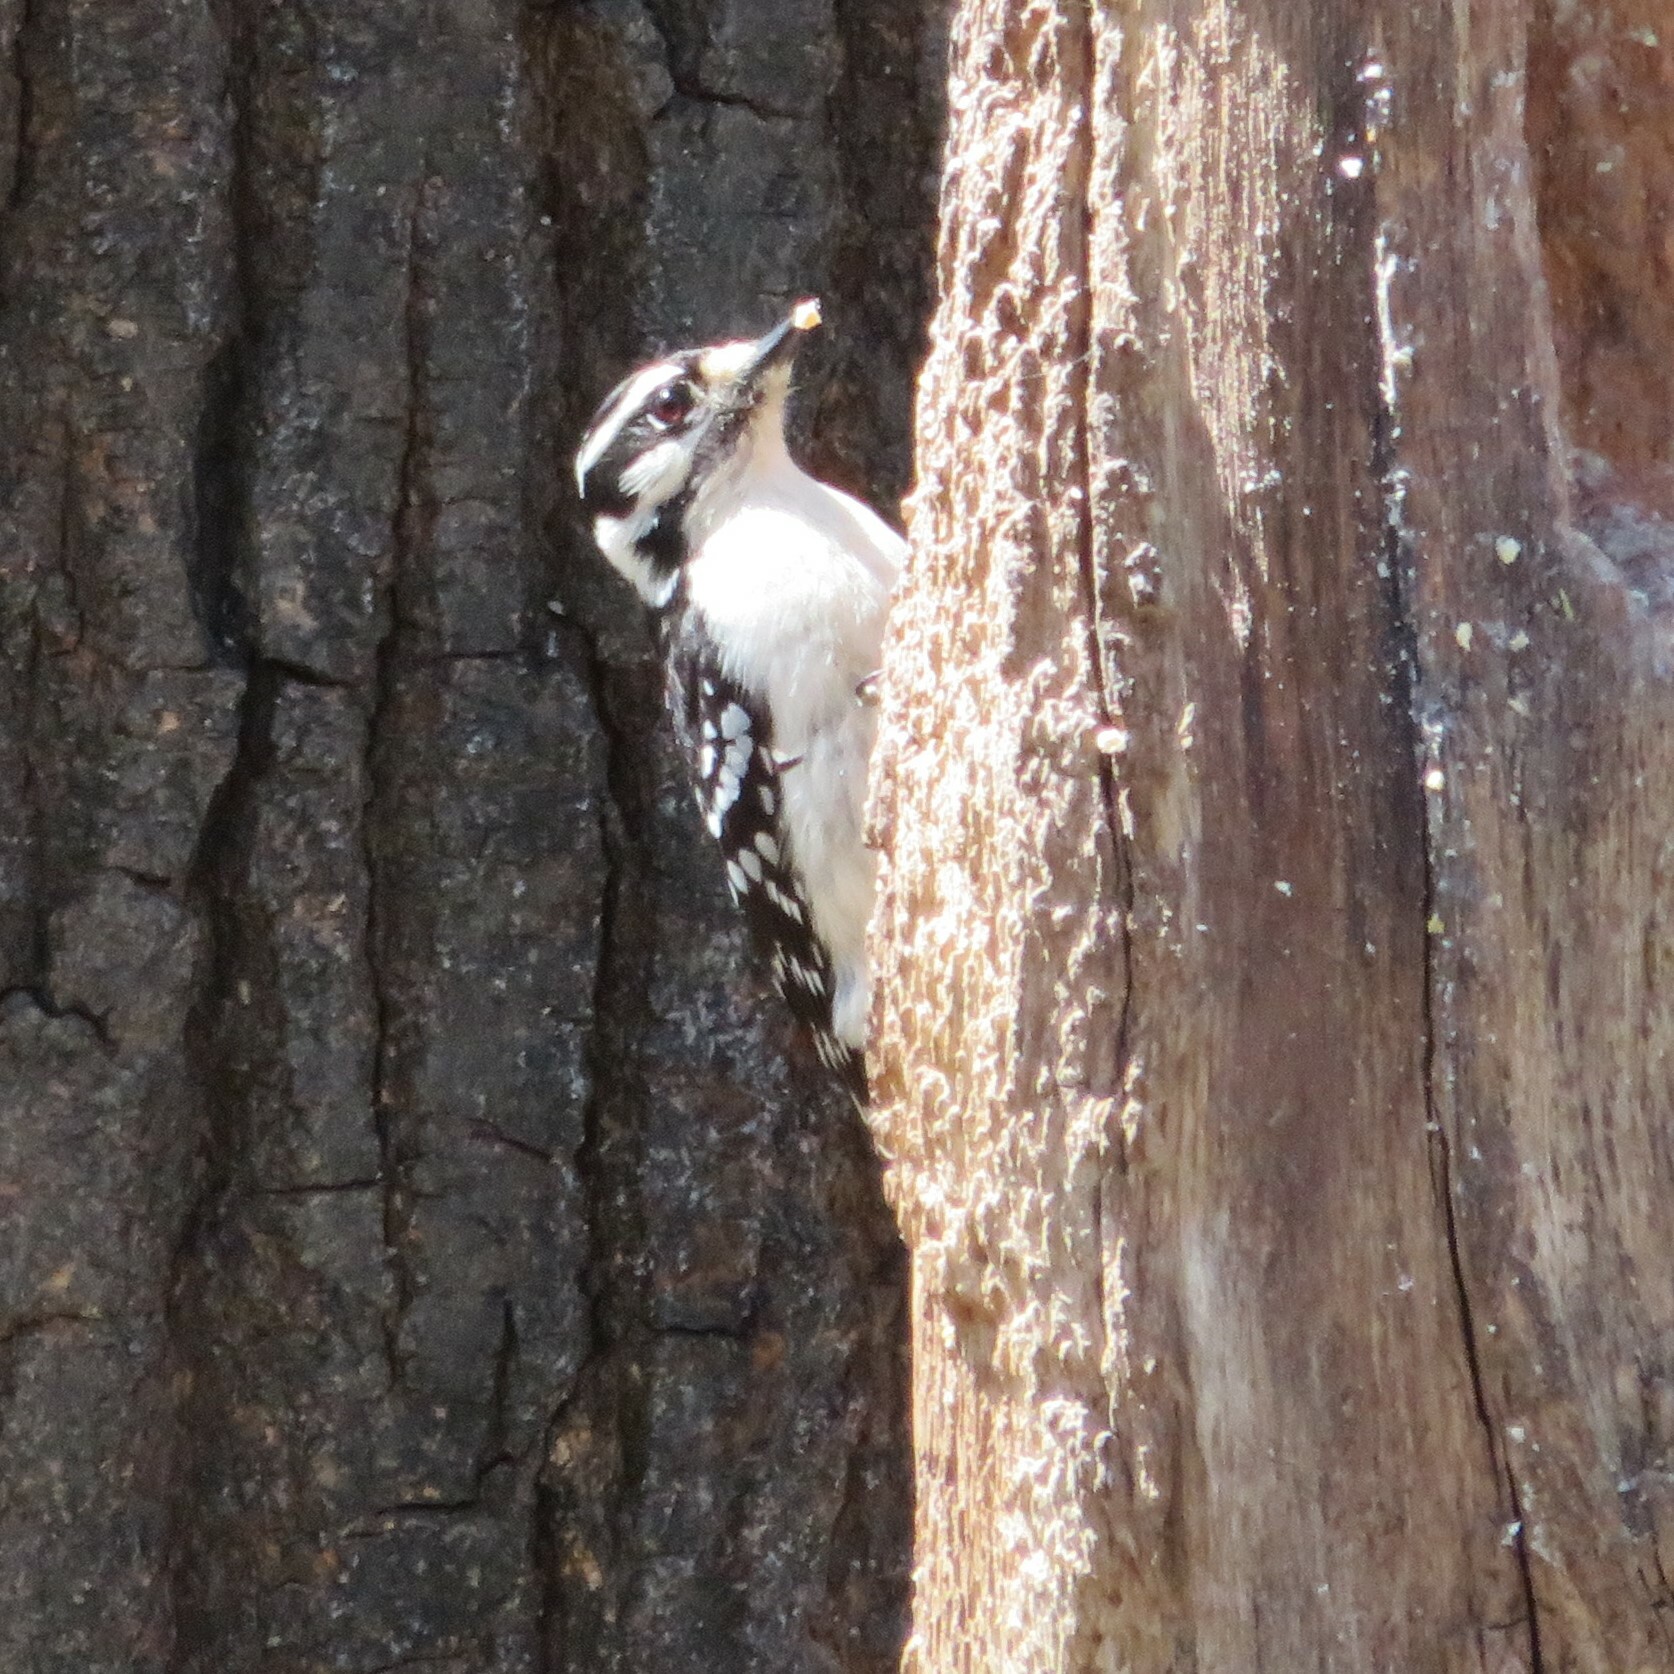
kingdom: Animalia
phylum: Chordata
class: Aves
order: Piciformes
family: Picidae
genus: Dryobates
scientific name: Dryobates pubescens
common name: Downy woodpecker
